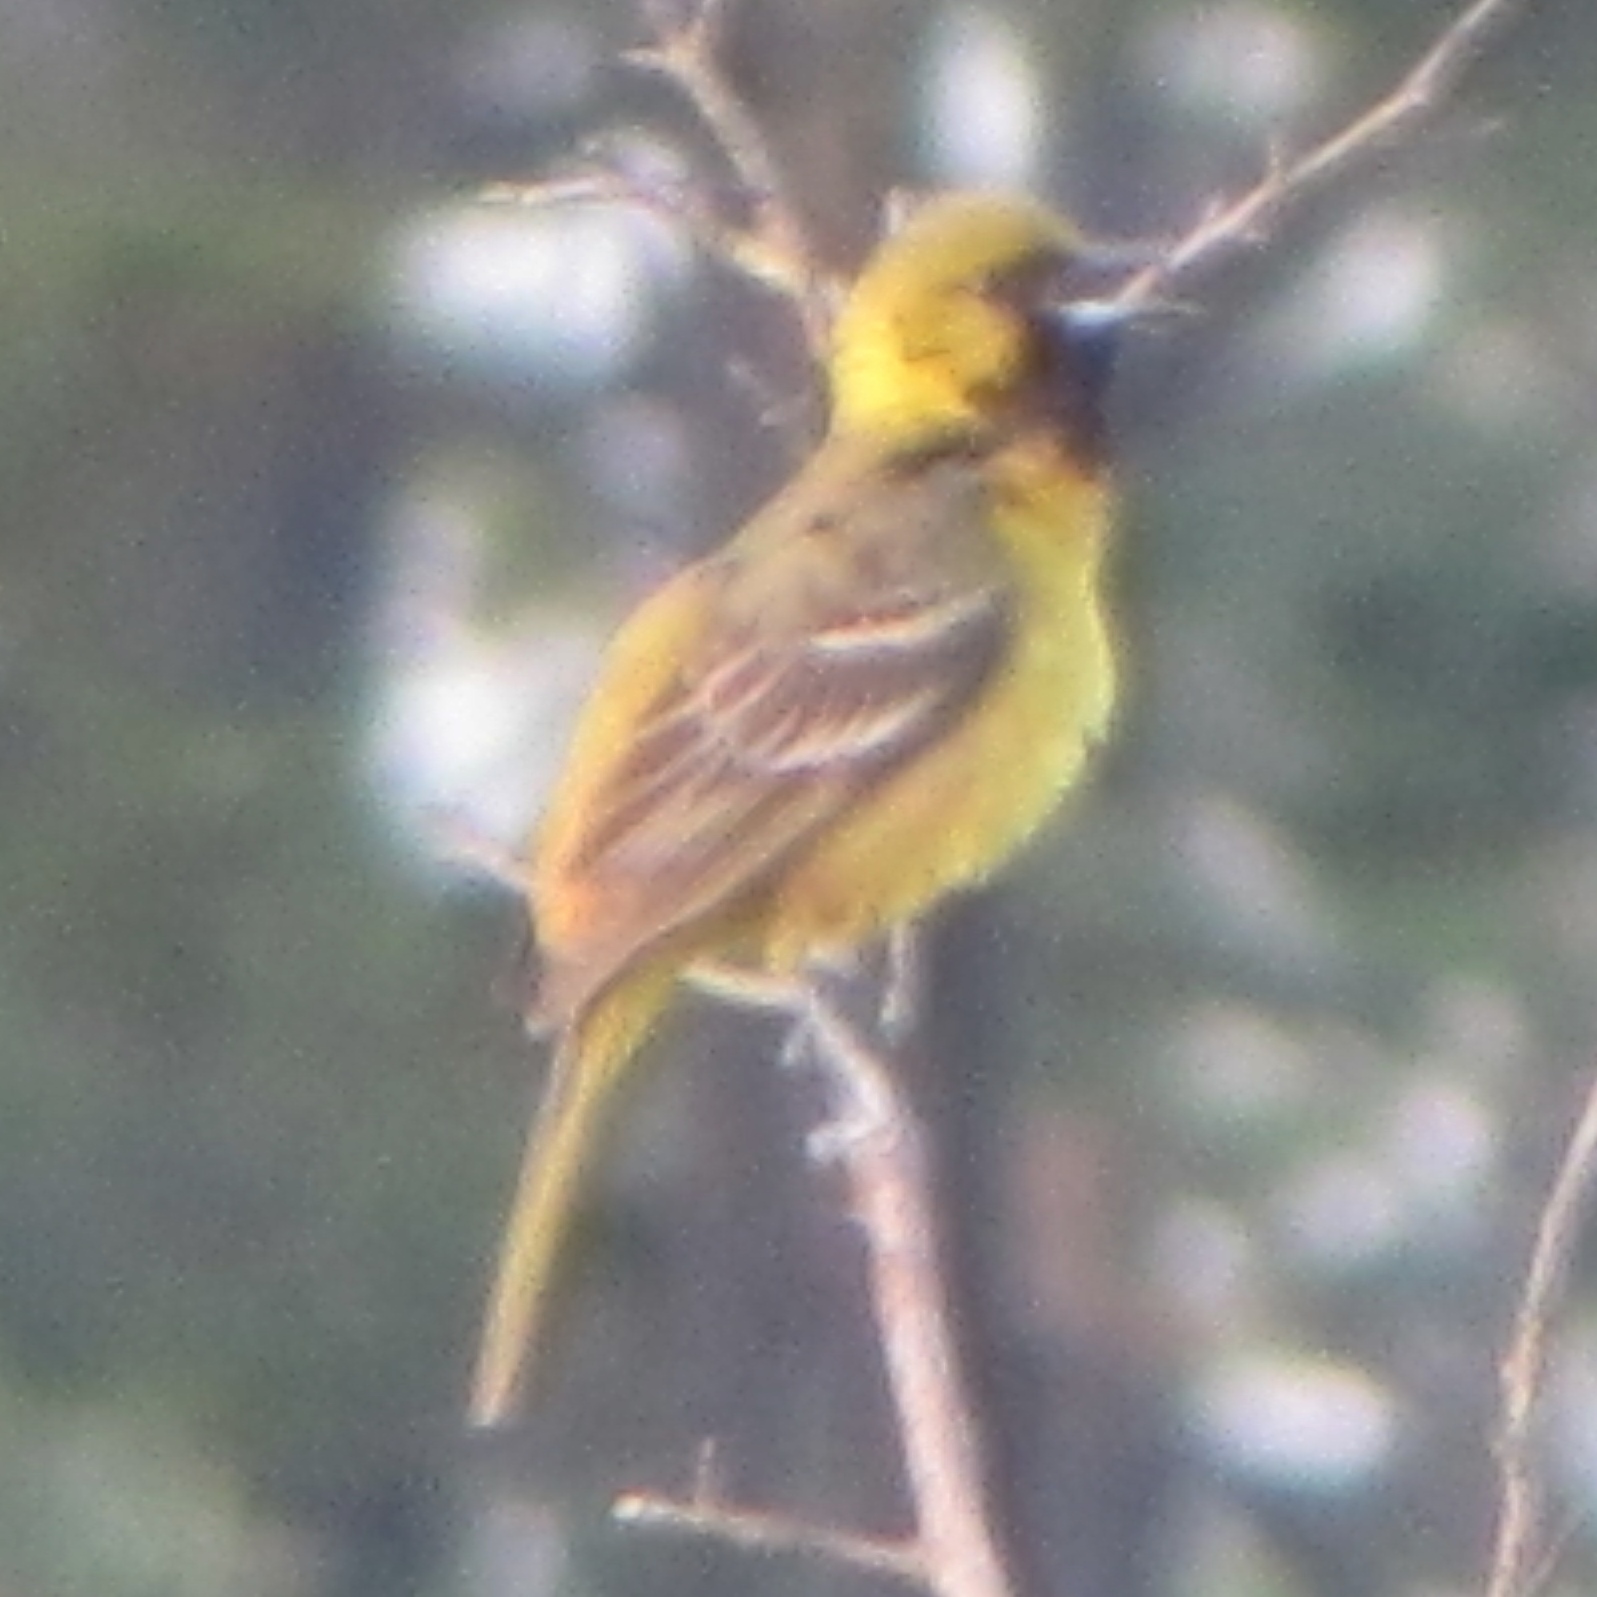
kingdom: Animalia
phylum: Chordata
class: Aves
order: Passeriformes
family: Icteridae
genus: Icterus
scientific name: Icterus spurius
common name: Orchard oriole
